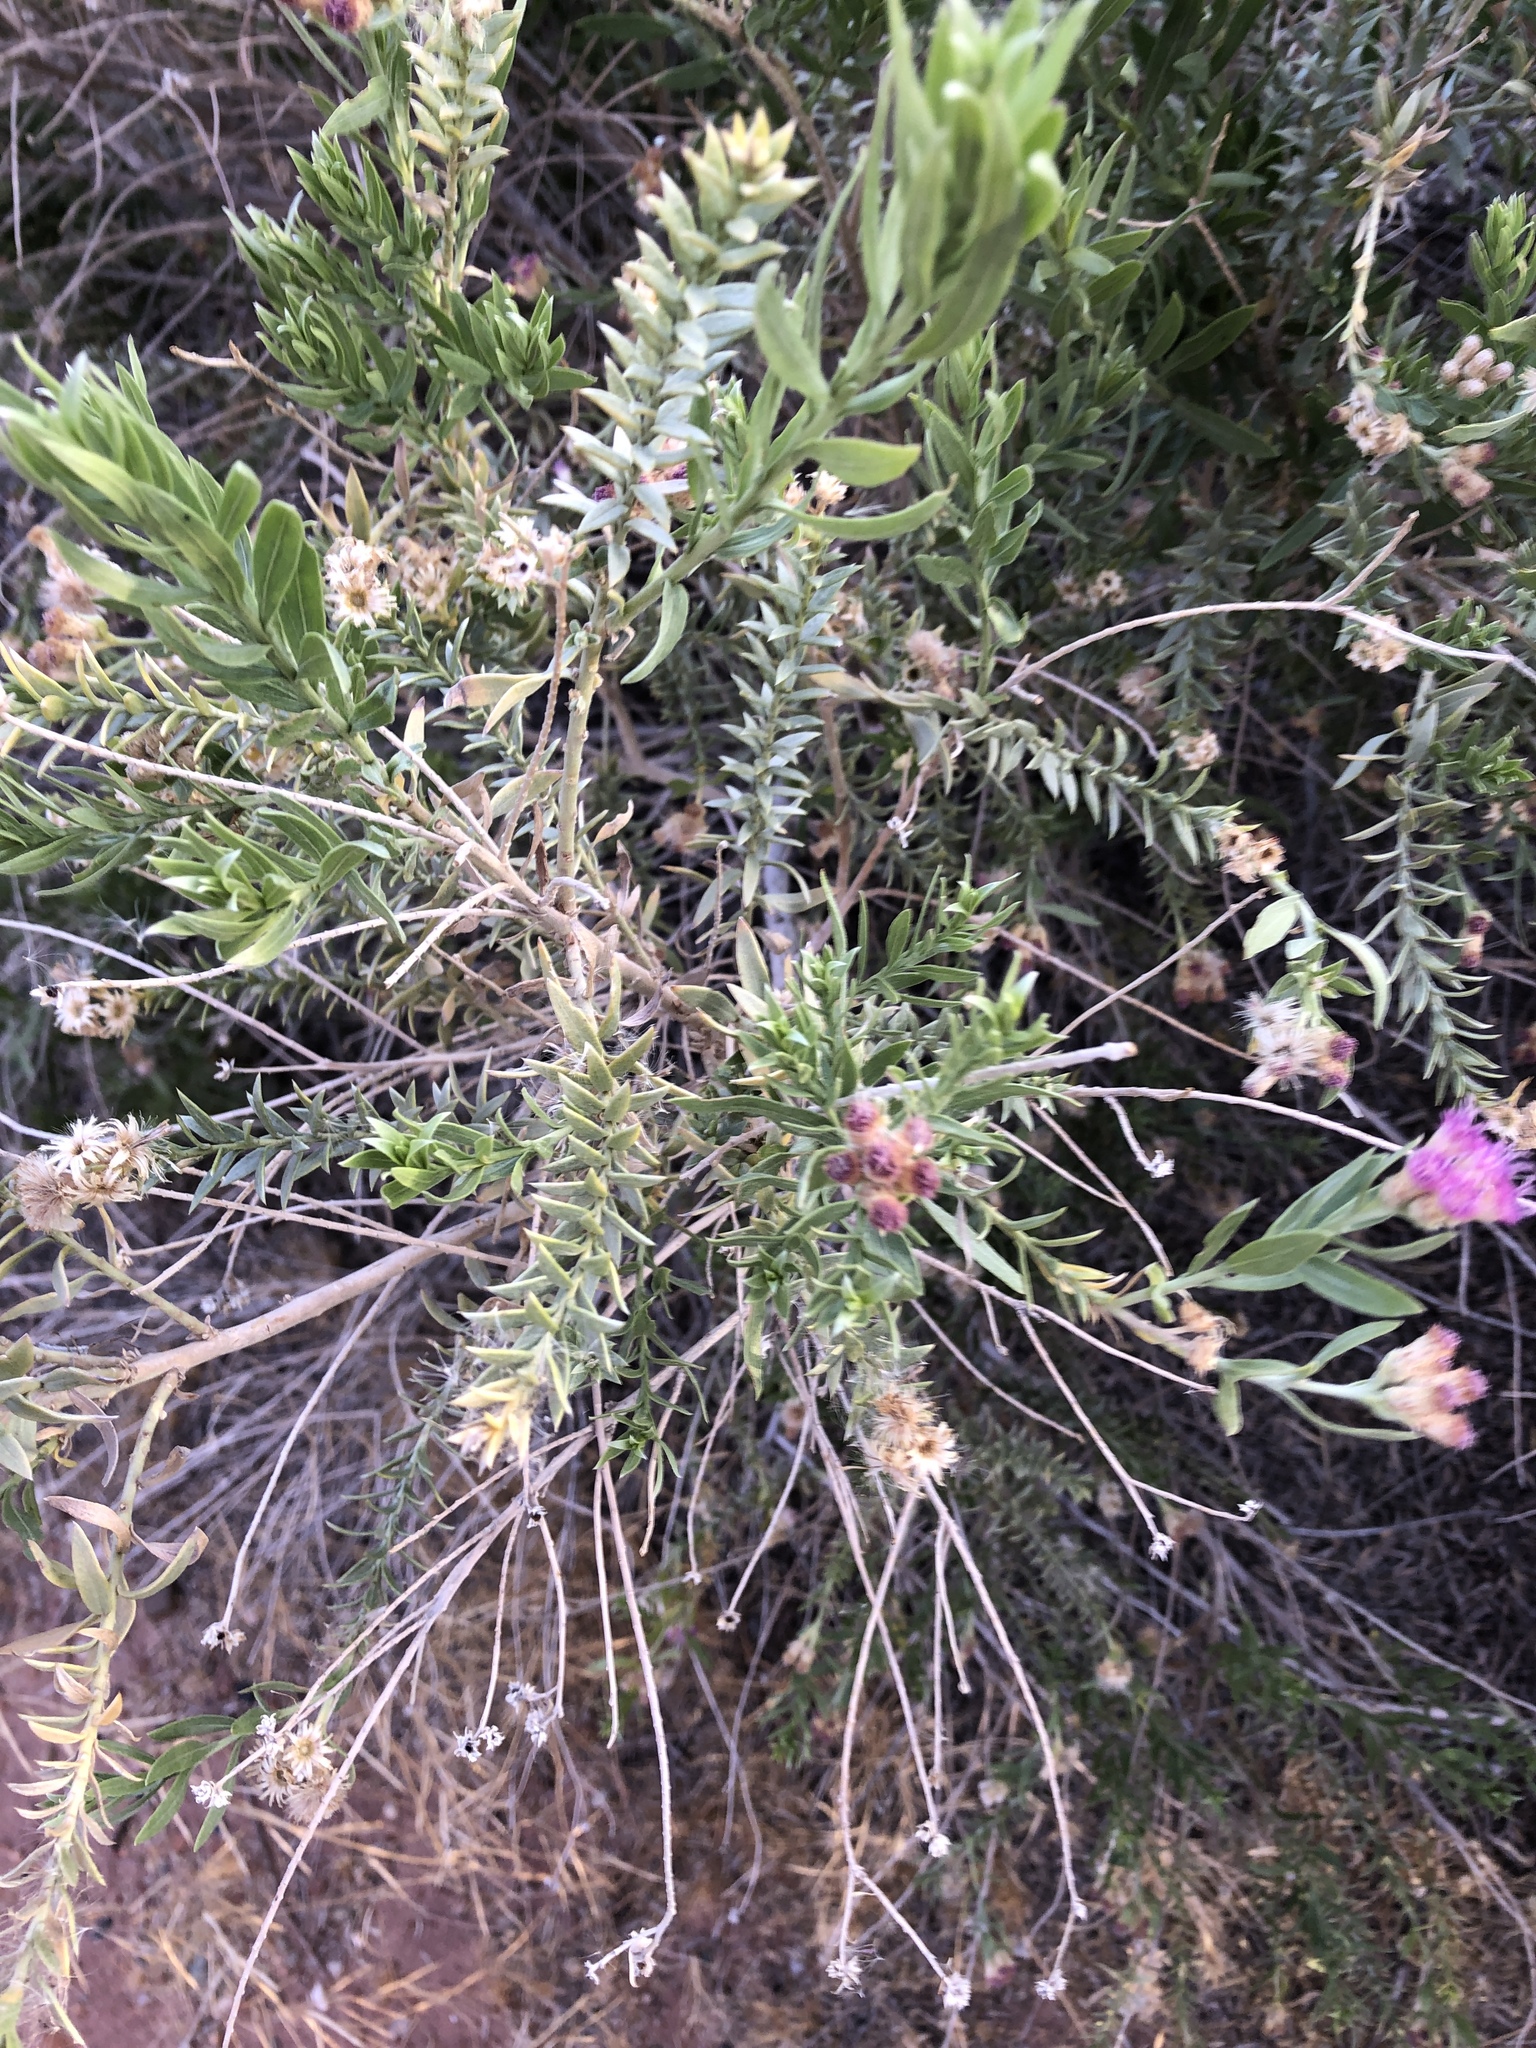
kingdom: Plantae
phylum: Tracheophyta
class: Magnoliopsida
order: Asterales
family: Asteraceae
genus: Pluchea
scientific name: Pluchea sericea
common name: Arrow-weed
